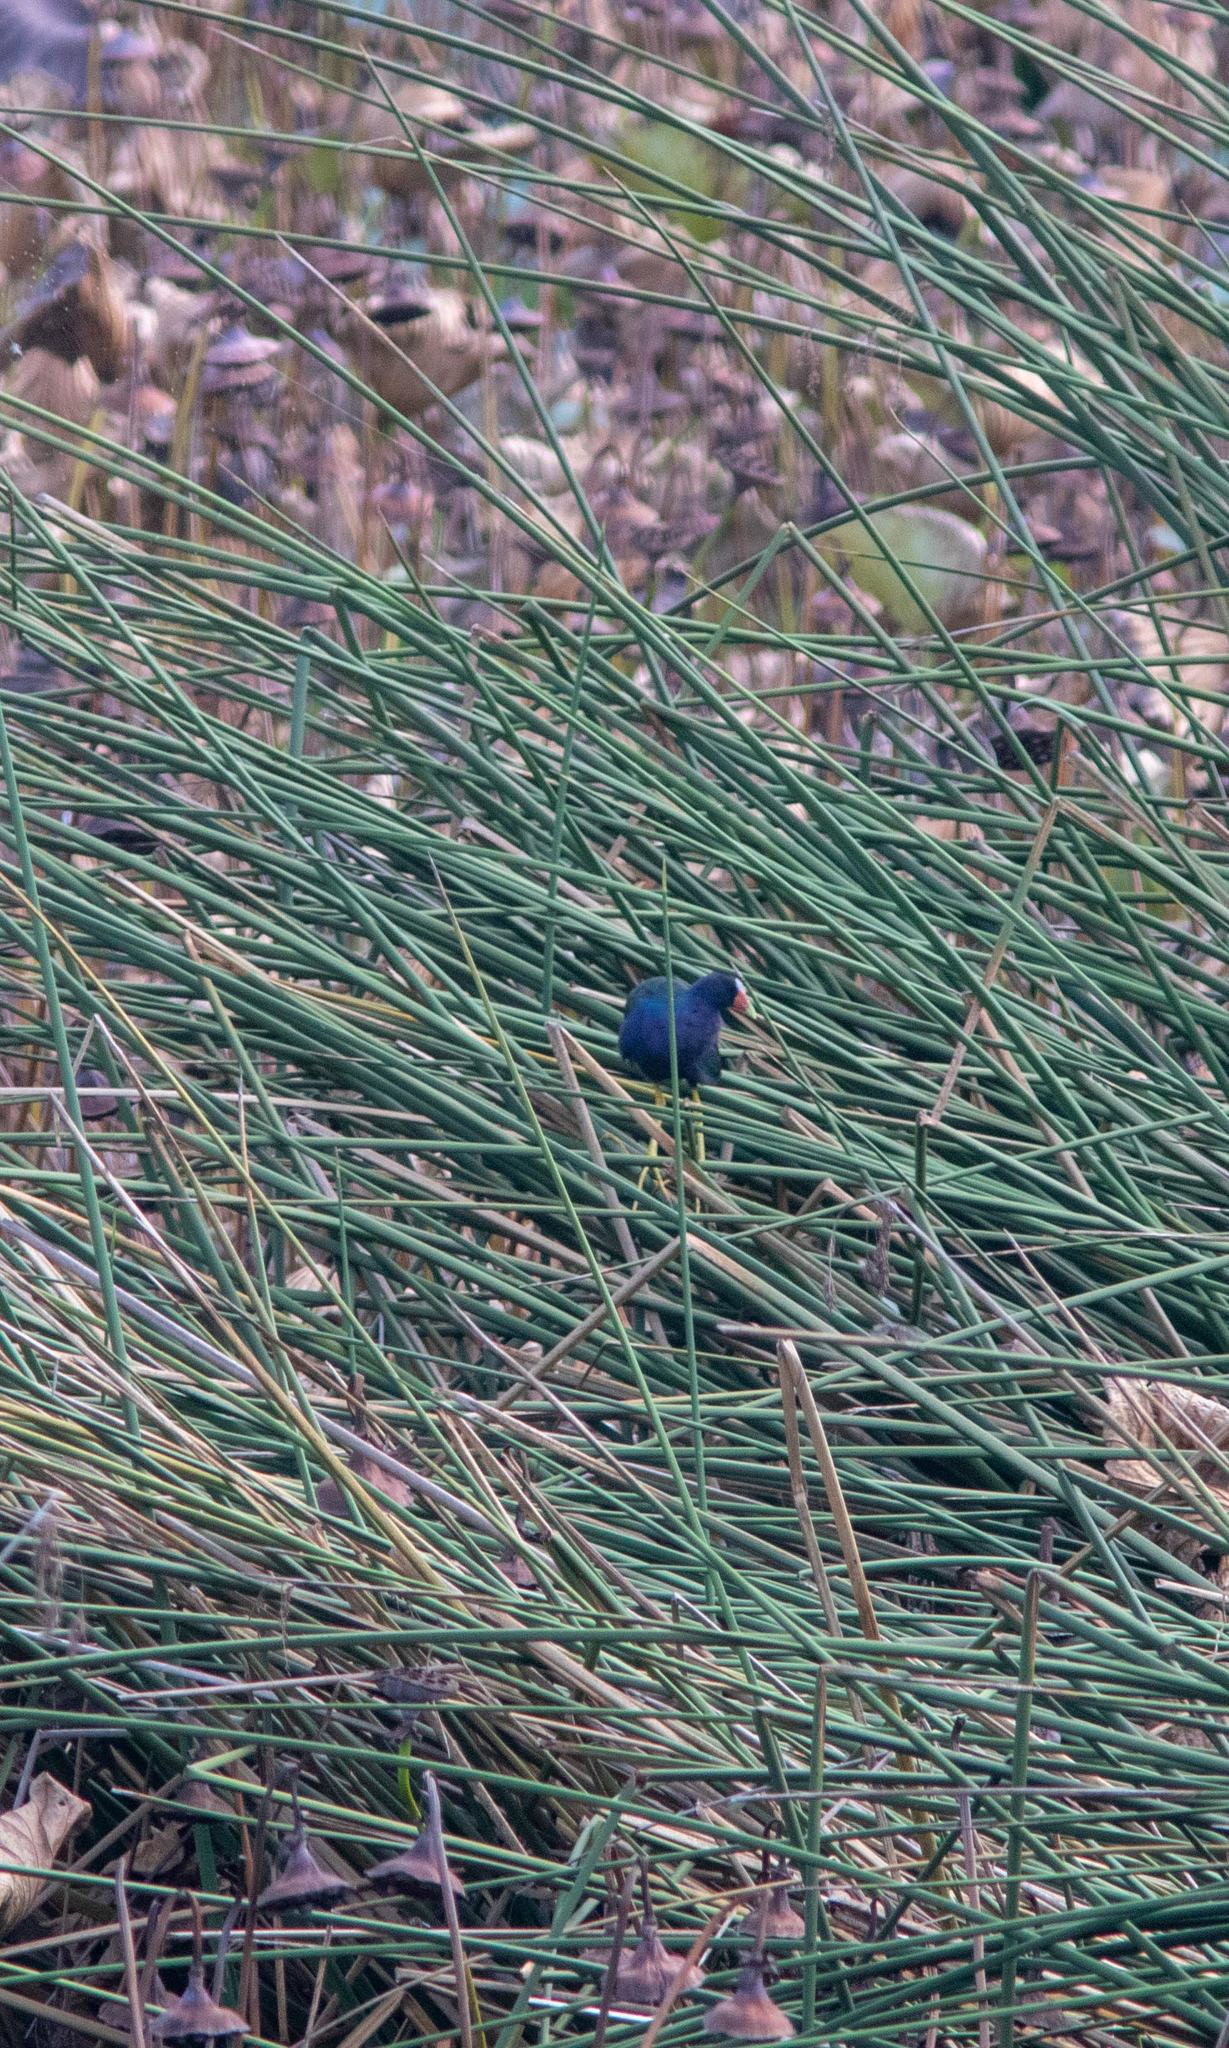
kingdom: Animalia
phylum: Chordata
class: Aves
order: Gruiformes
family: Rallidae
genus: Porphyrio
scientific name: Porphyrio martinica
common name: Purple gallinule
